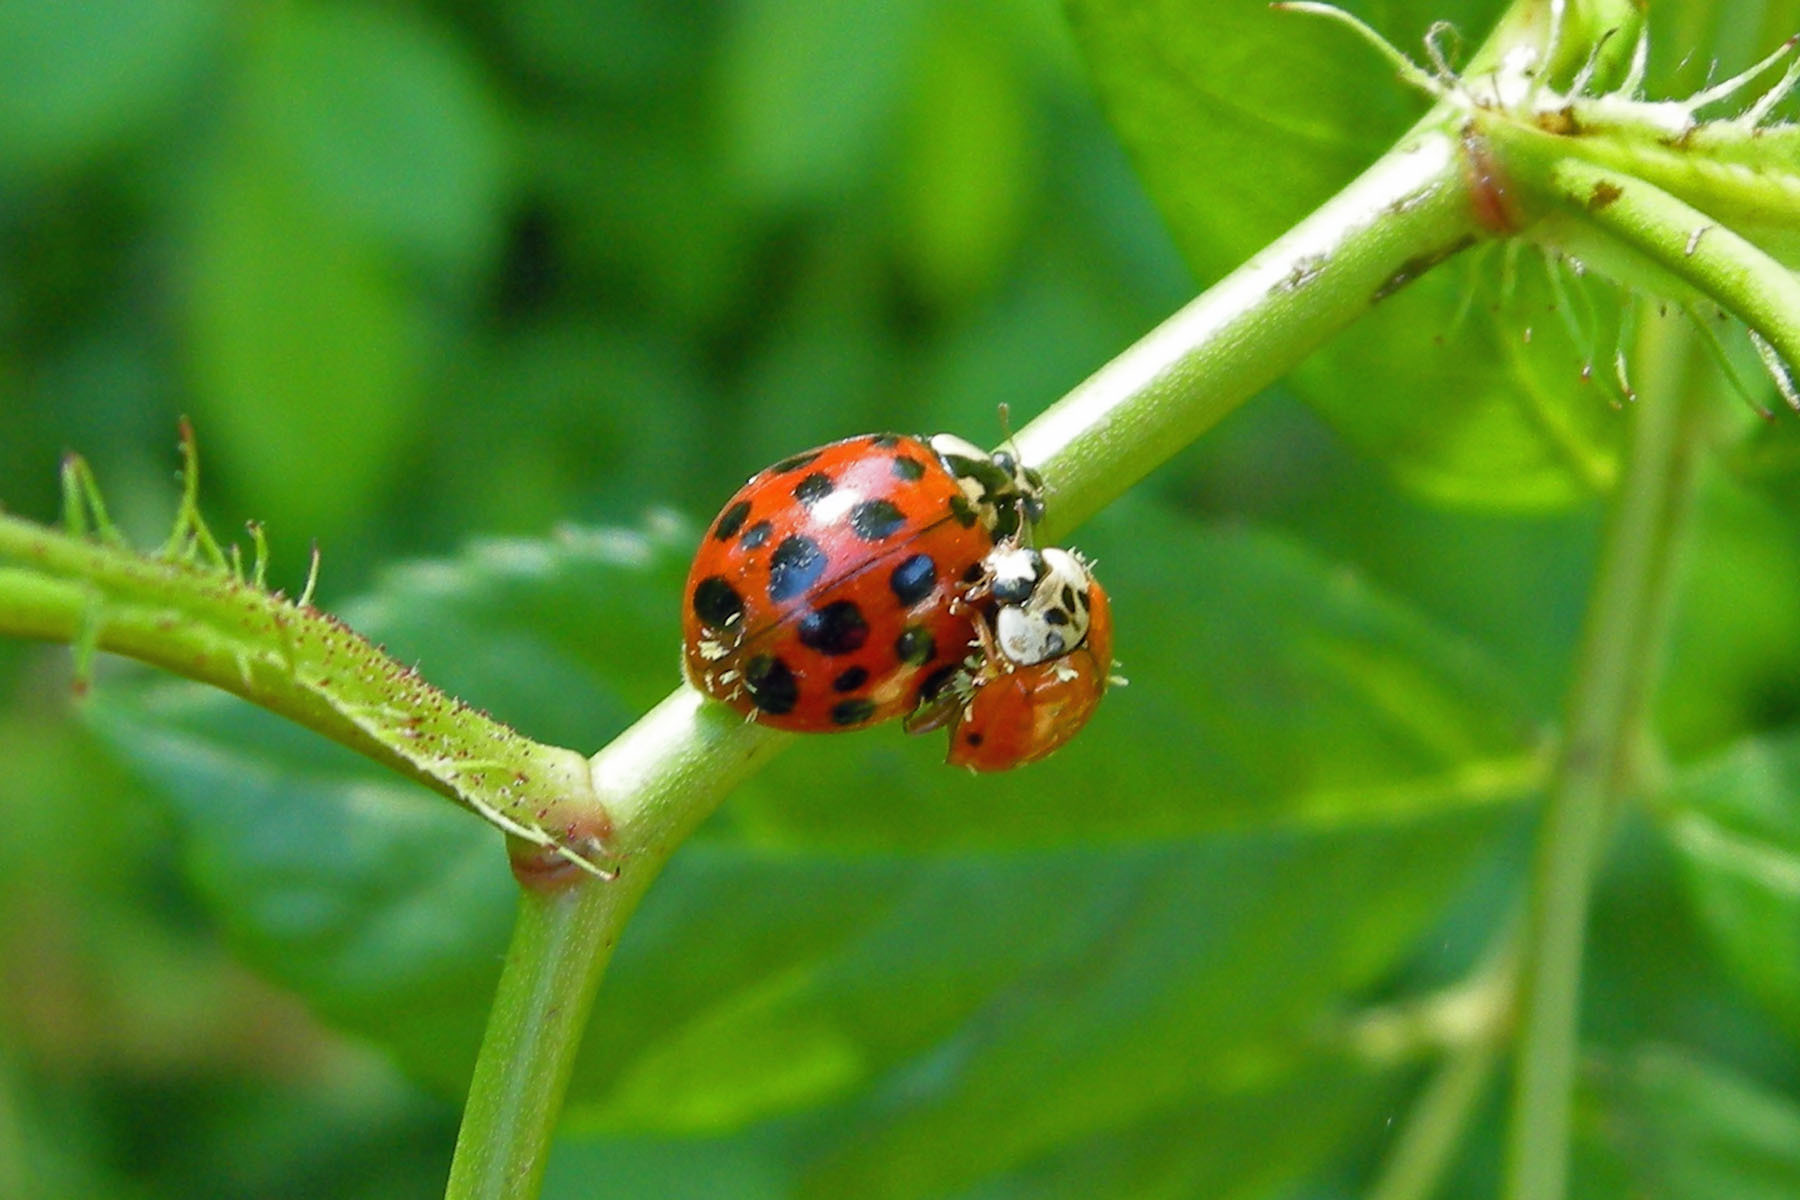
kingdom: Animalia
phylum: Arthropoda
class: Insecta
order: Coleoptera
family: Coccinellidae
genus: Harmonia
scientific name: Harmonia axyridis
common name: Harlequin ladybird
